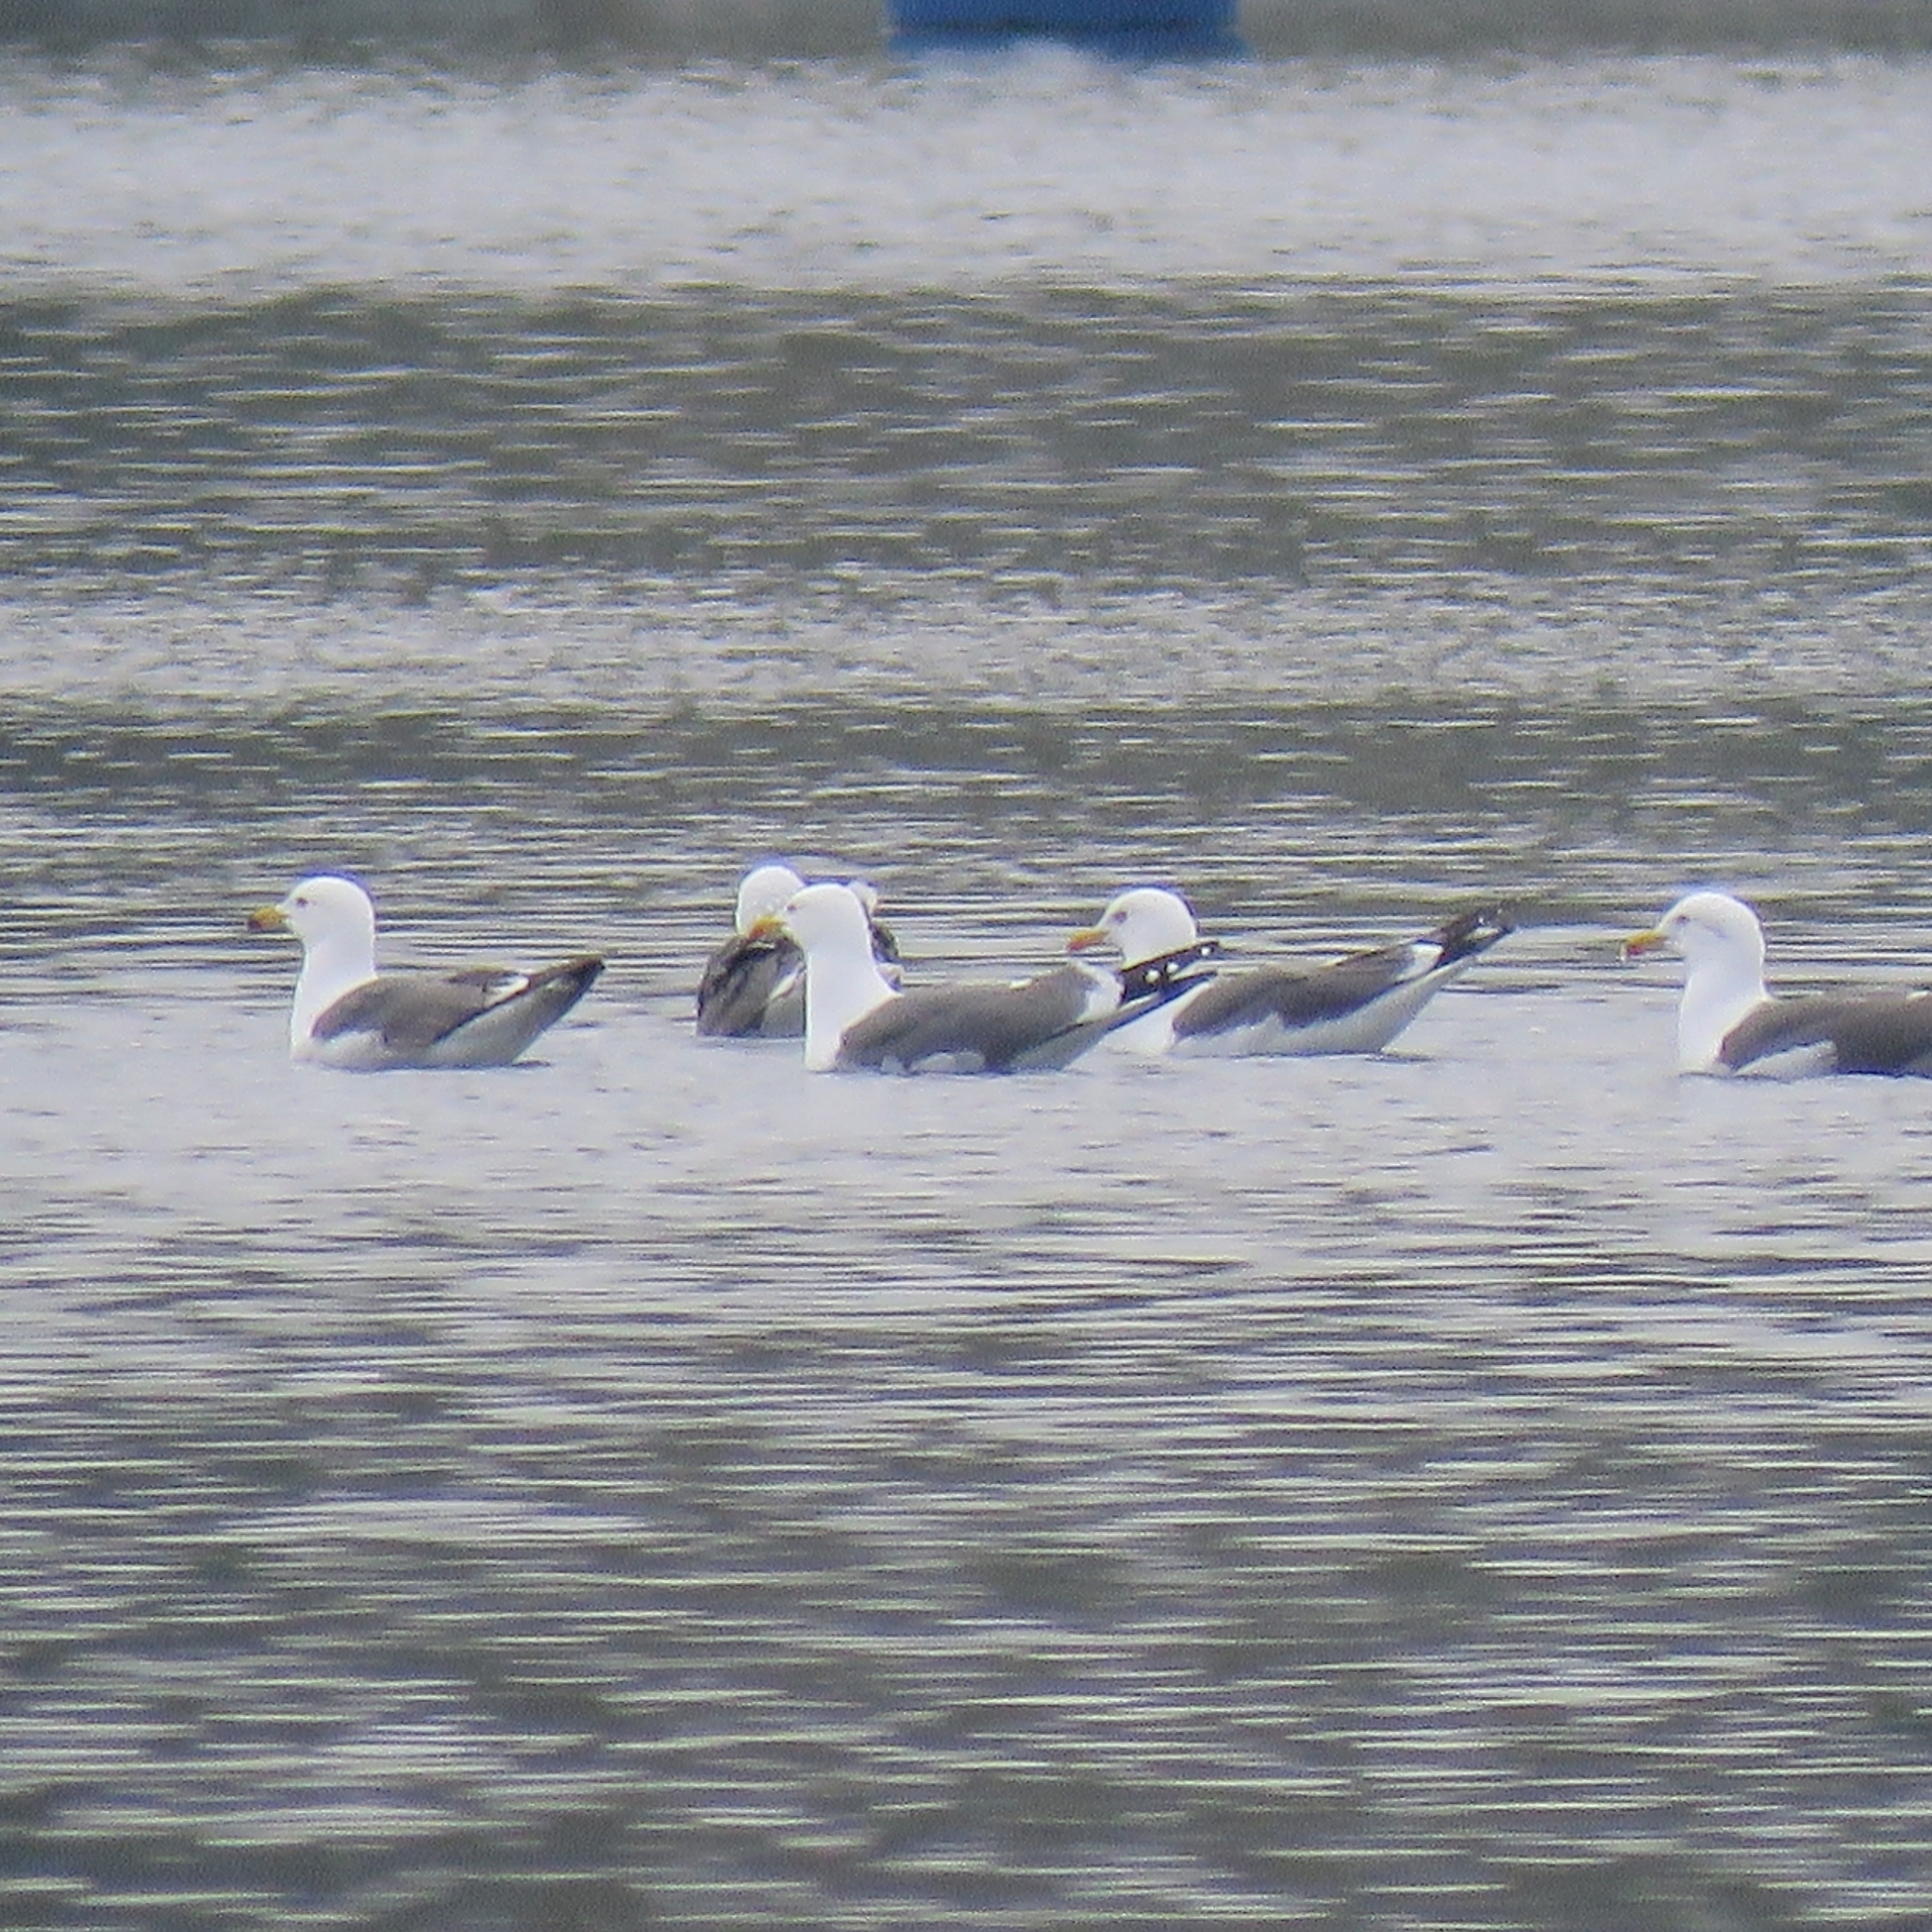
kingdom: Animalia
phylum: Chordata
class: Aves
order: Charadriiformes
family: Laridae
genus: Larus
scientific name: Larus fuscus
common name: Lesser black-backed gull
